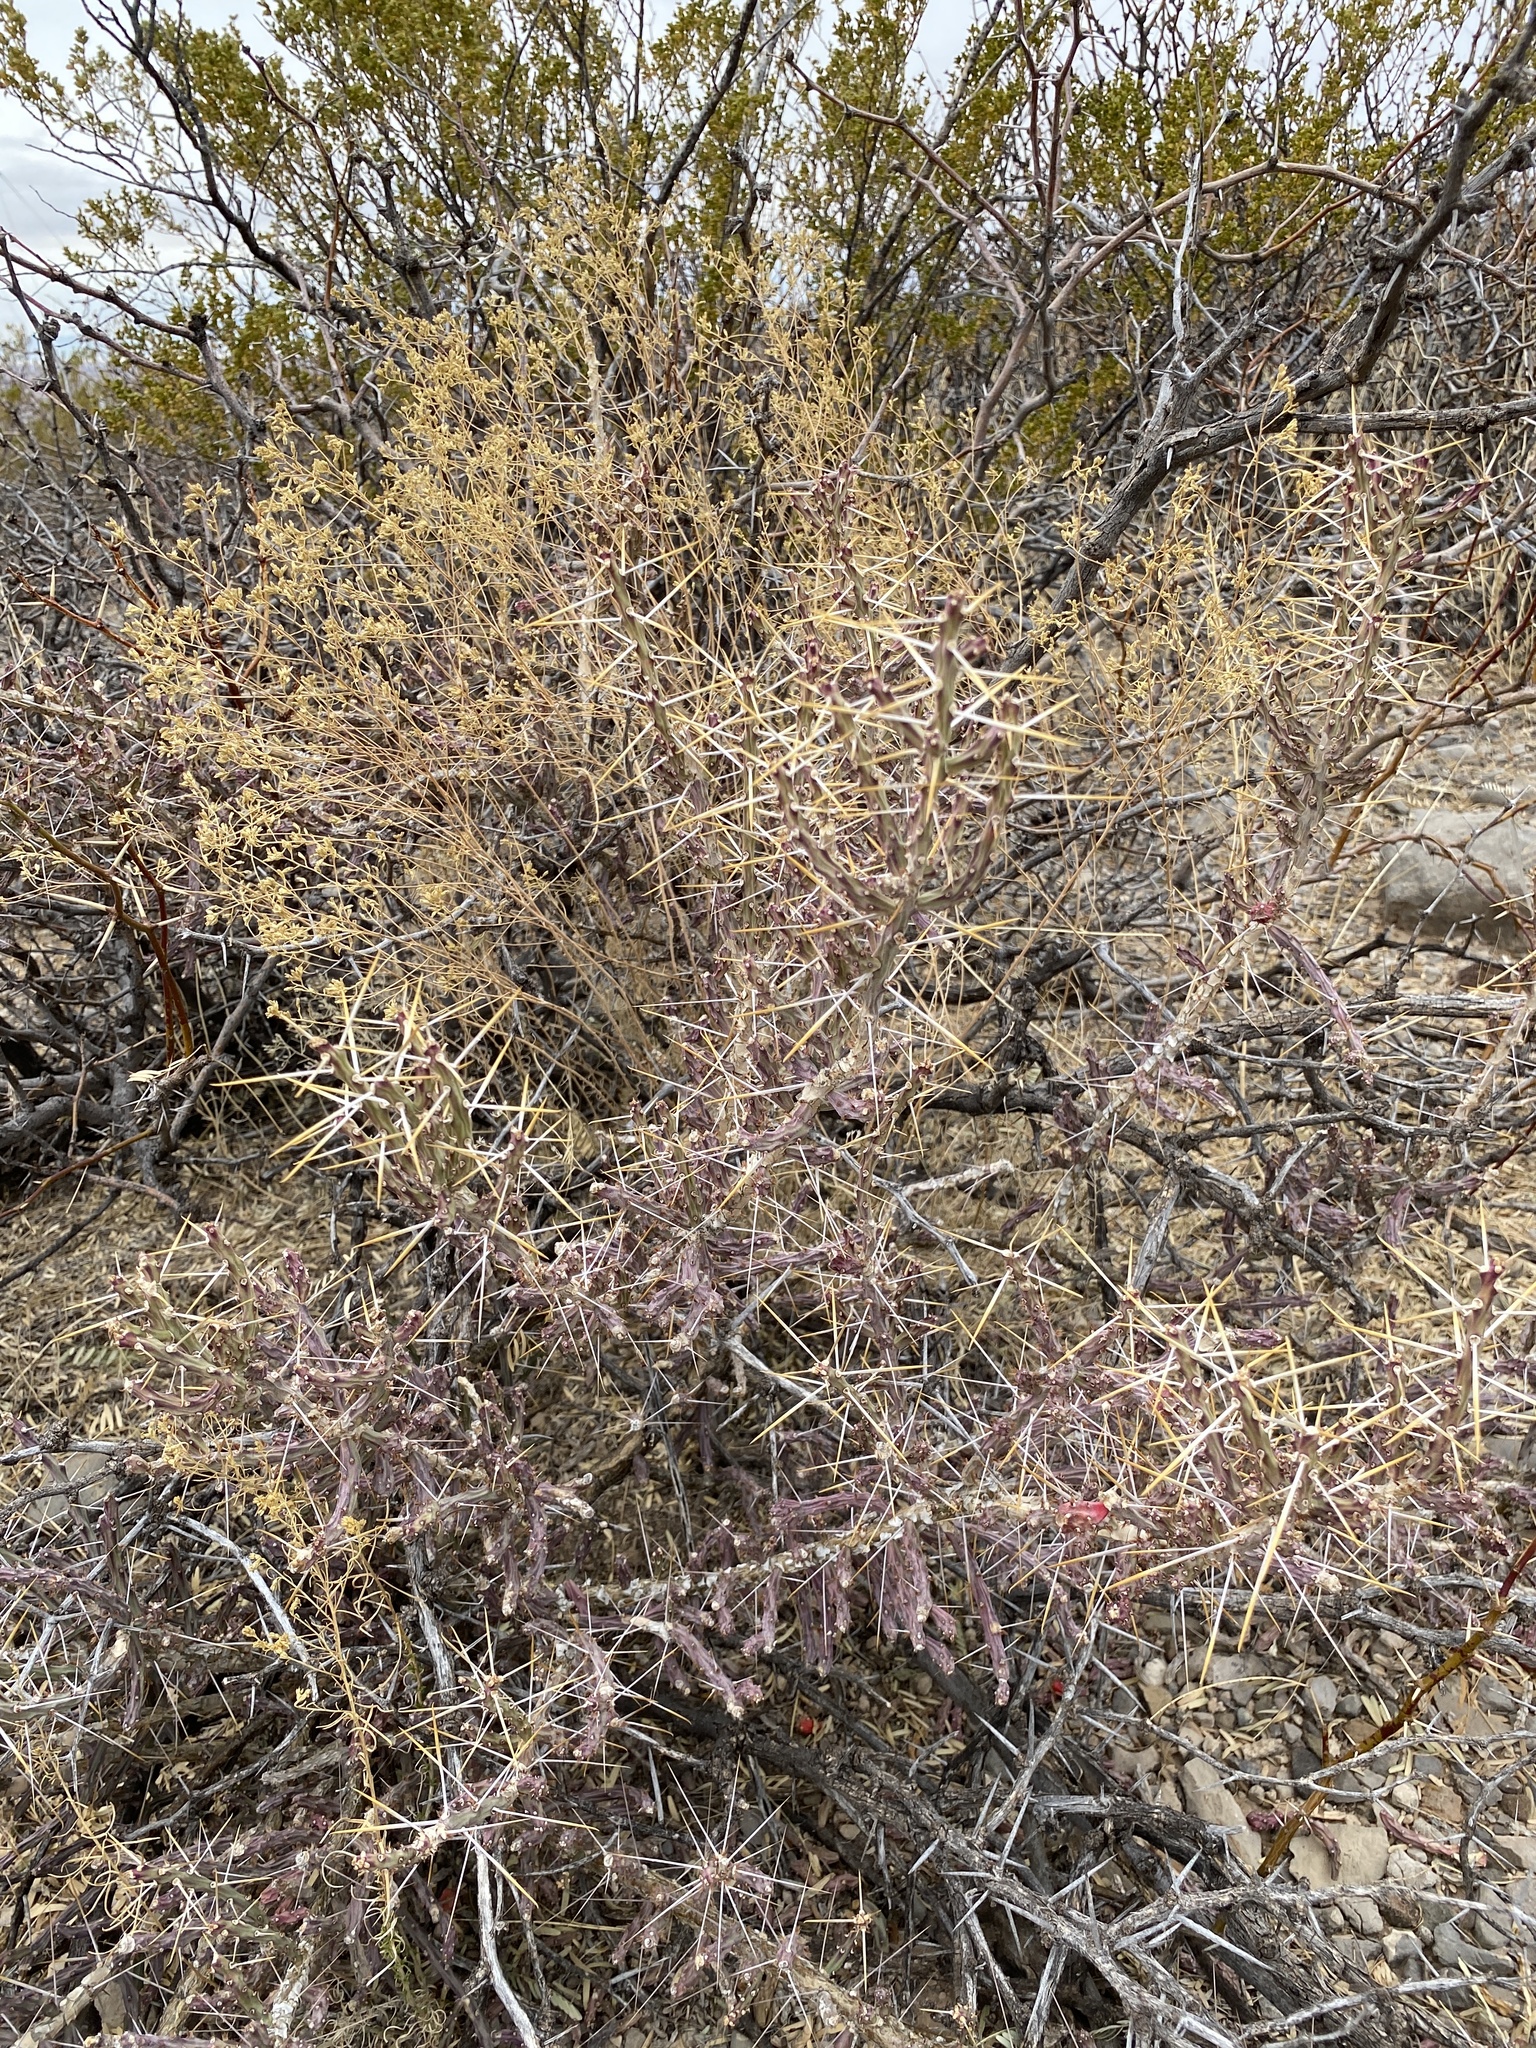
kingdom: Plantae
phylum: Tracheophyta
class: Magnoliopsida
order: Caryophyllales
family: Cactaceae
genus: Cylindropuntia
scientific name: Cylindropuntia leptocaulis
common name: Christmas cactus
